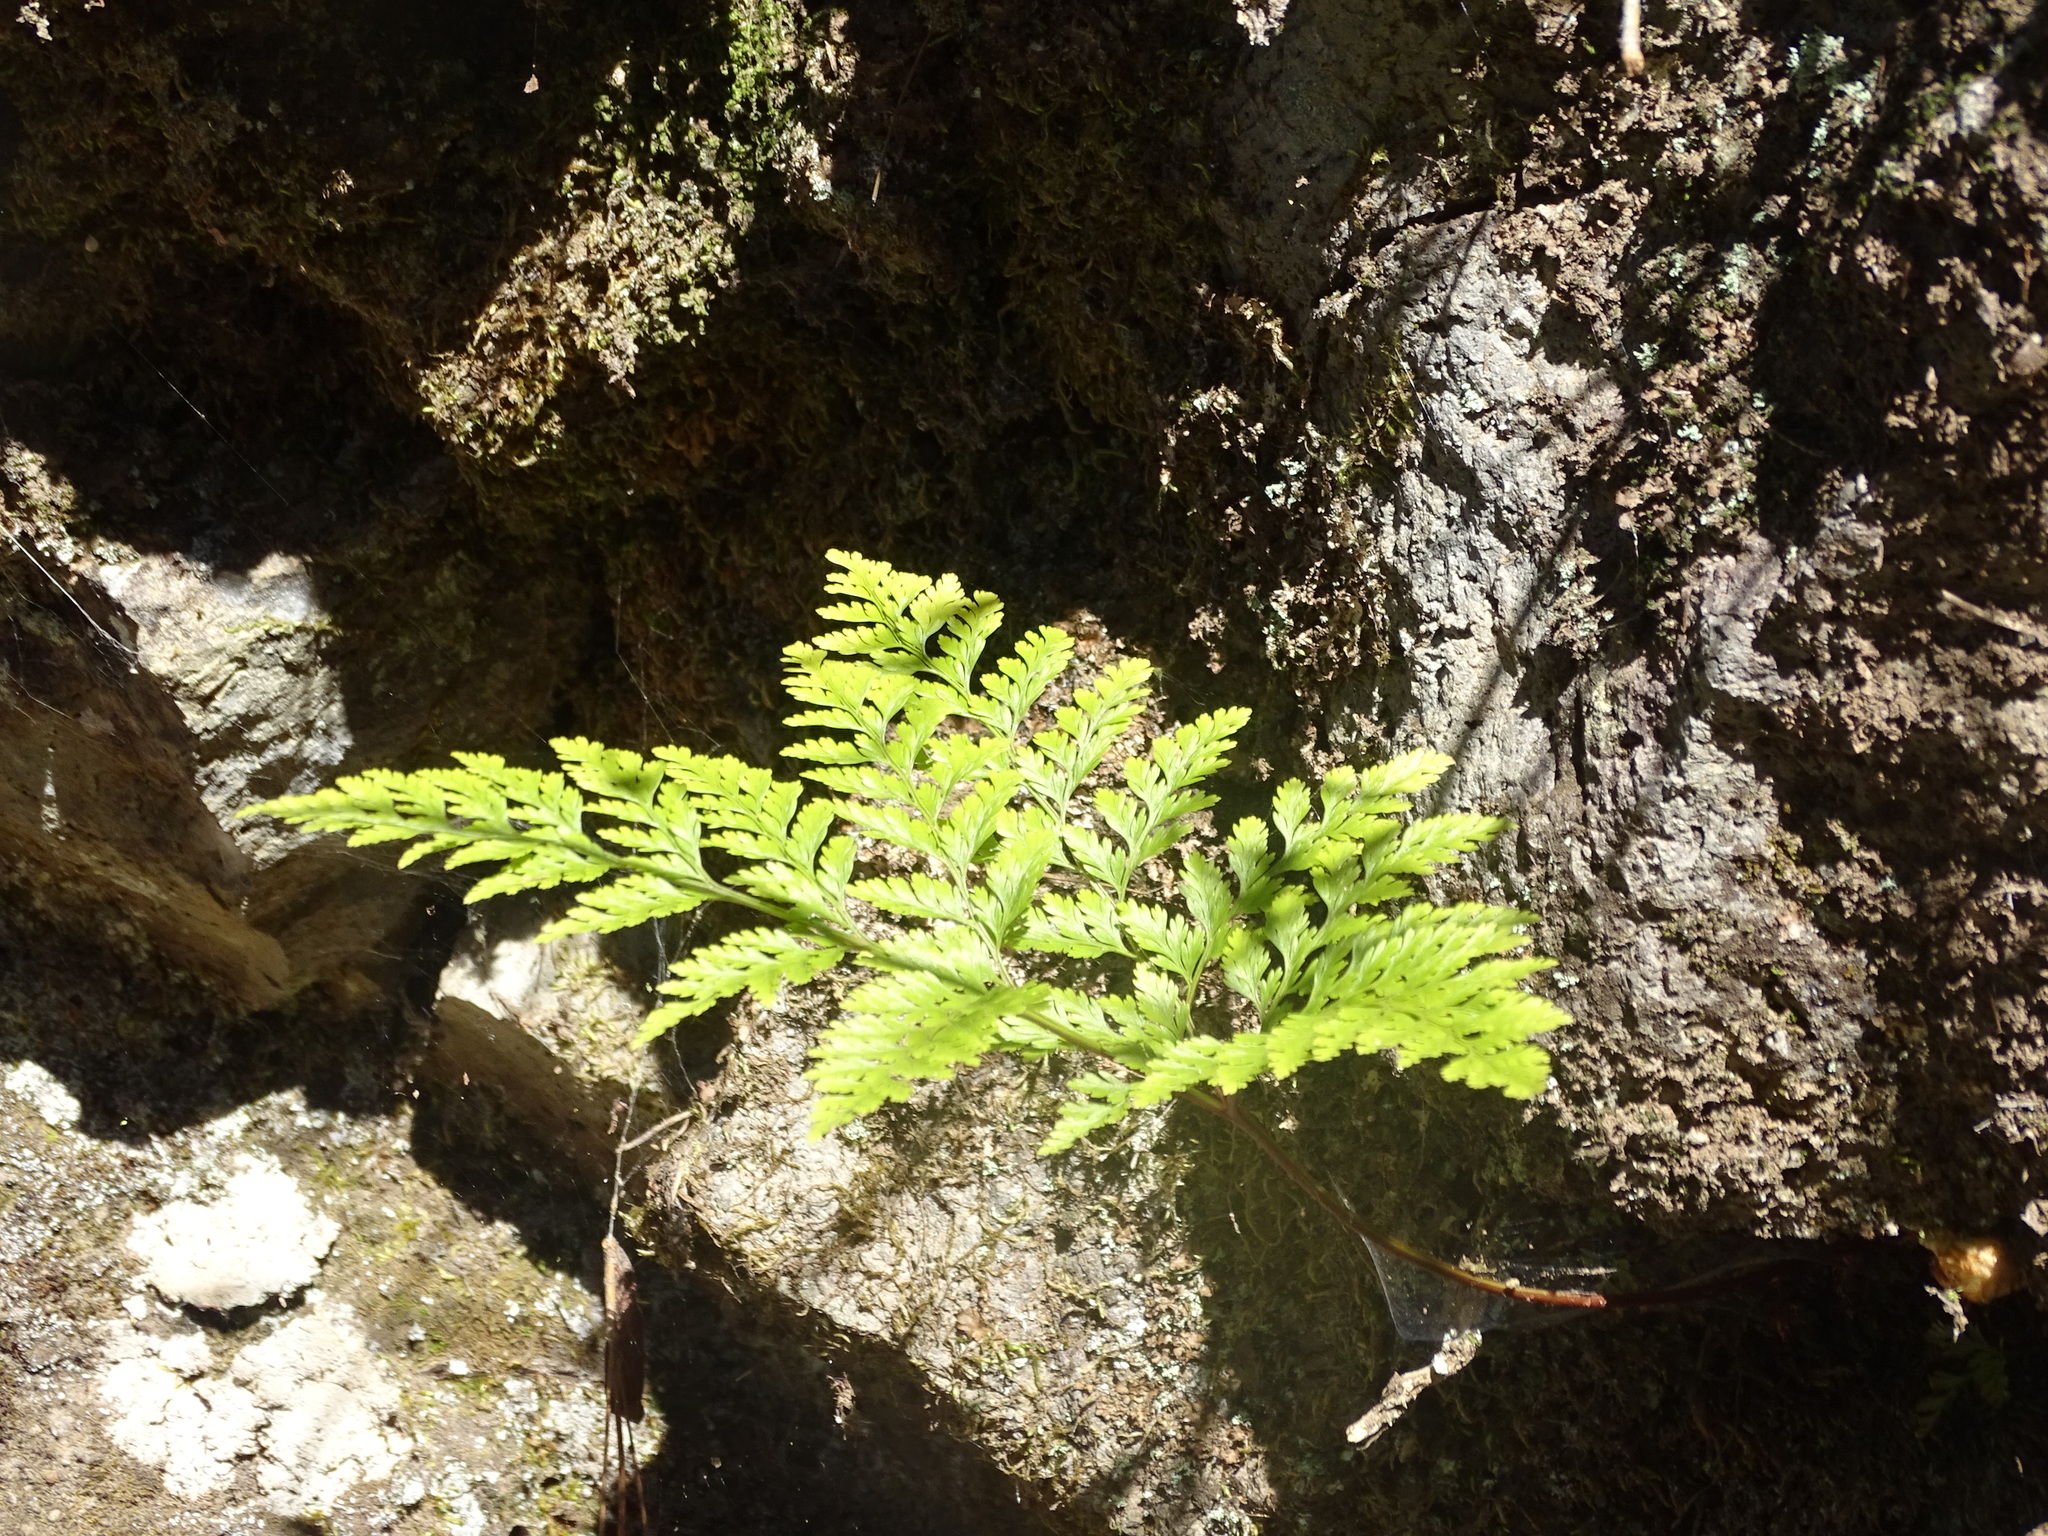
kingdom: Plantae
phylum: Tracheophyta
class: Polypodiopsida
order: Polypodiales
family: Davalliaceae
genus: Davallia
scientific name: Davallia canariensis
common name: Hare's-foot fern
